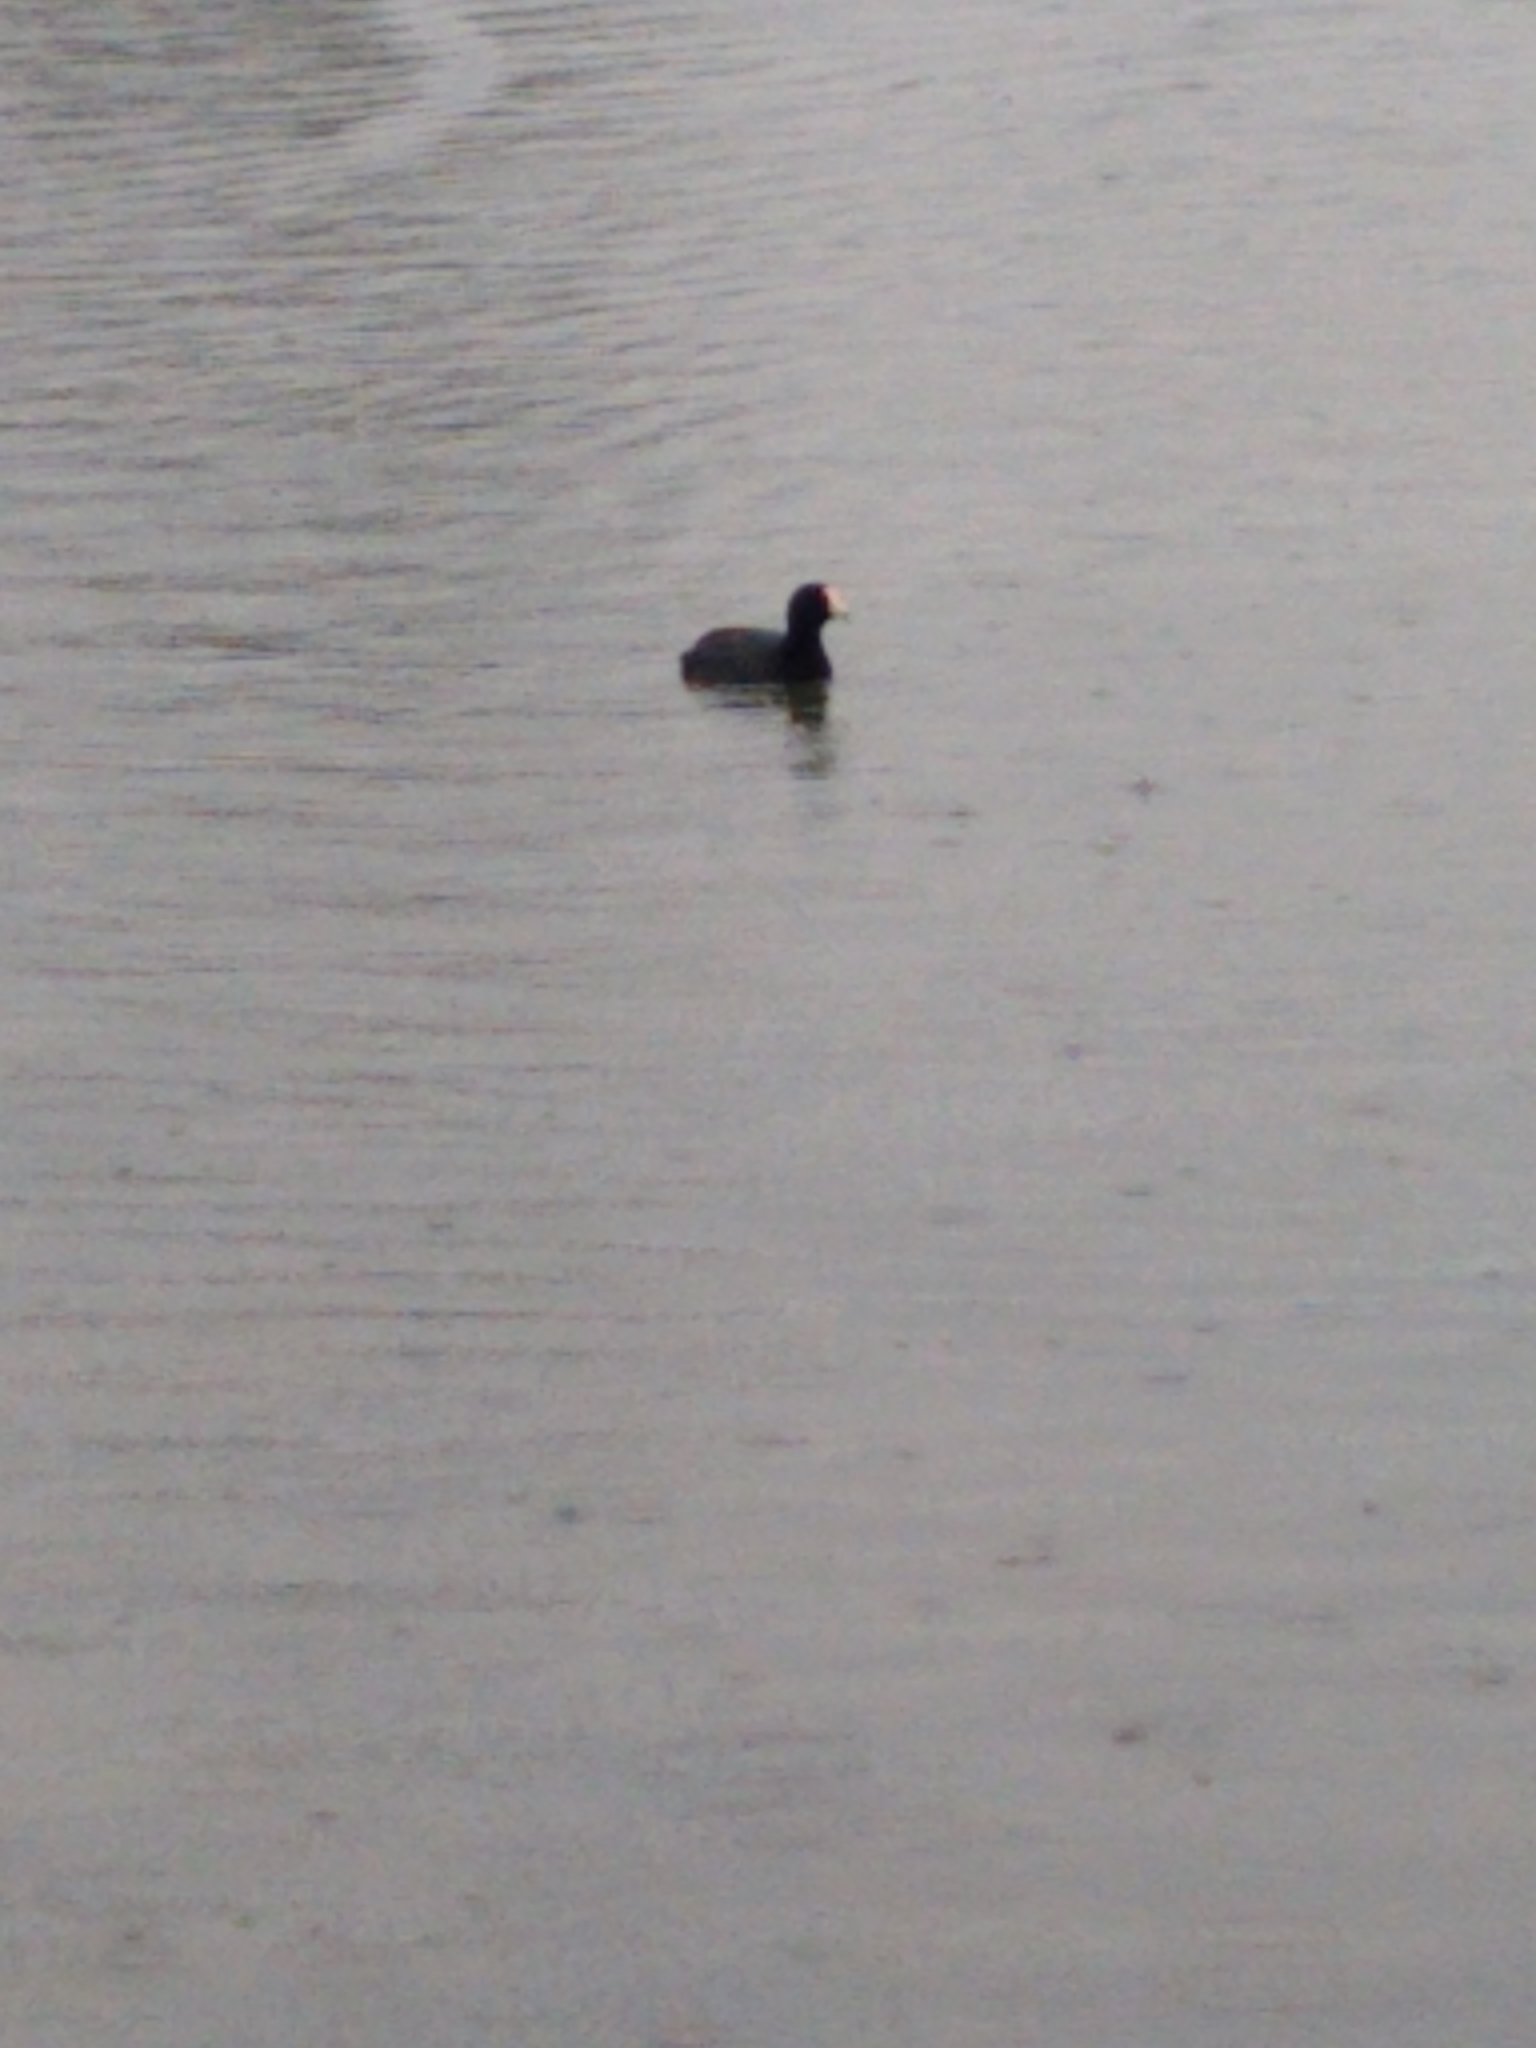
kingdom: Animalia
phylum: Chordata
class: Aves
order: Gruiformes
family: Rallidae
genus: Fulica
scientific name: Fulica americana
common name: American coot
